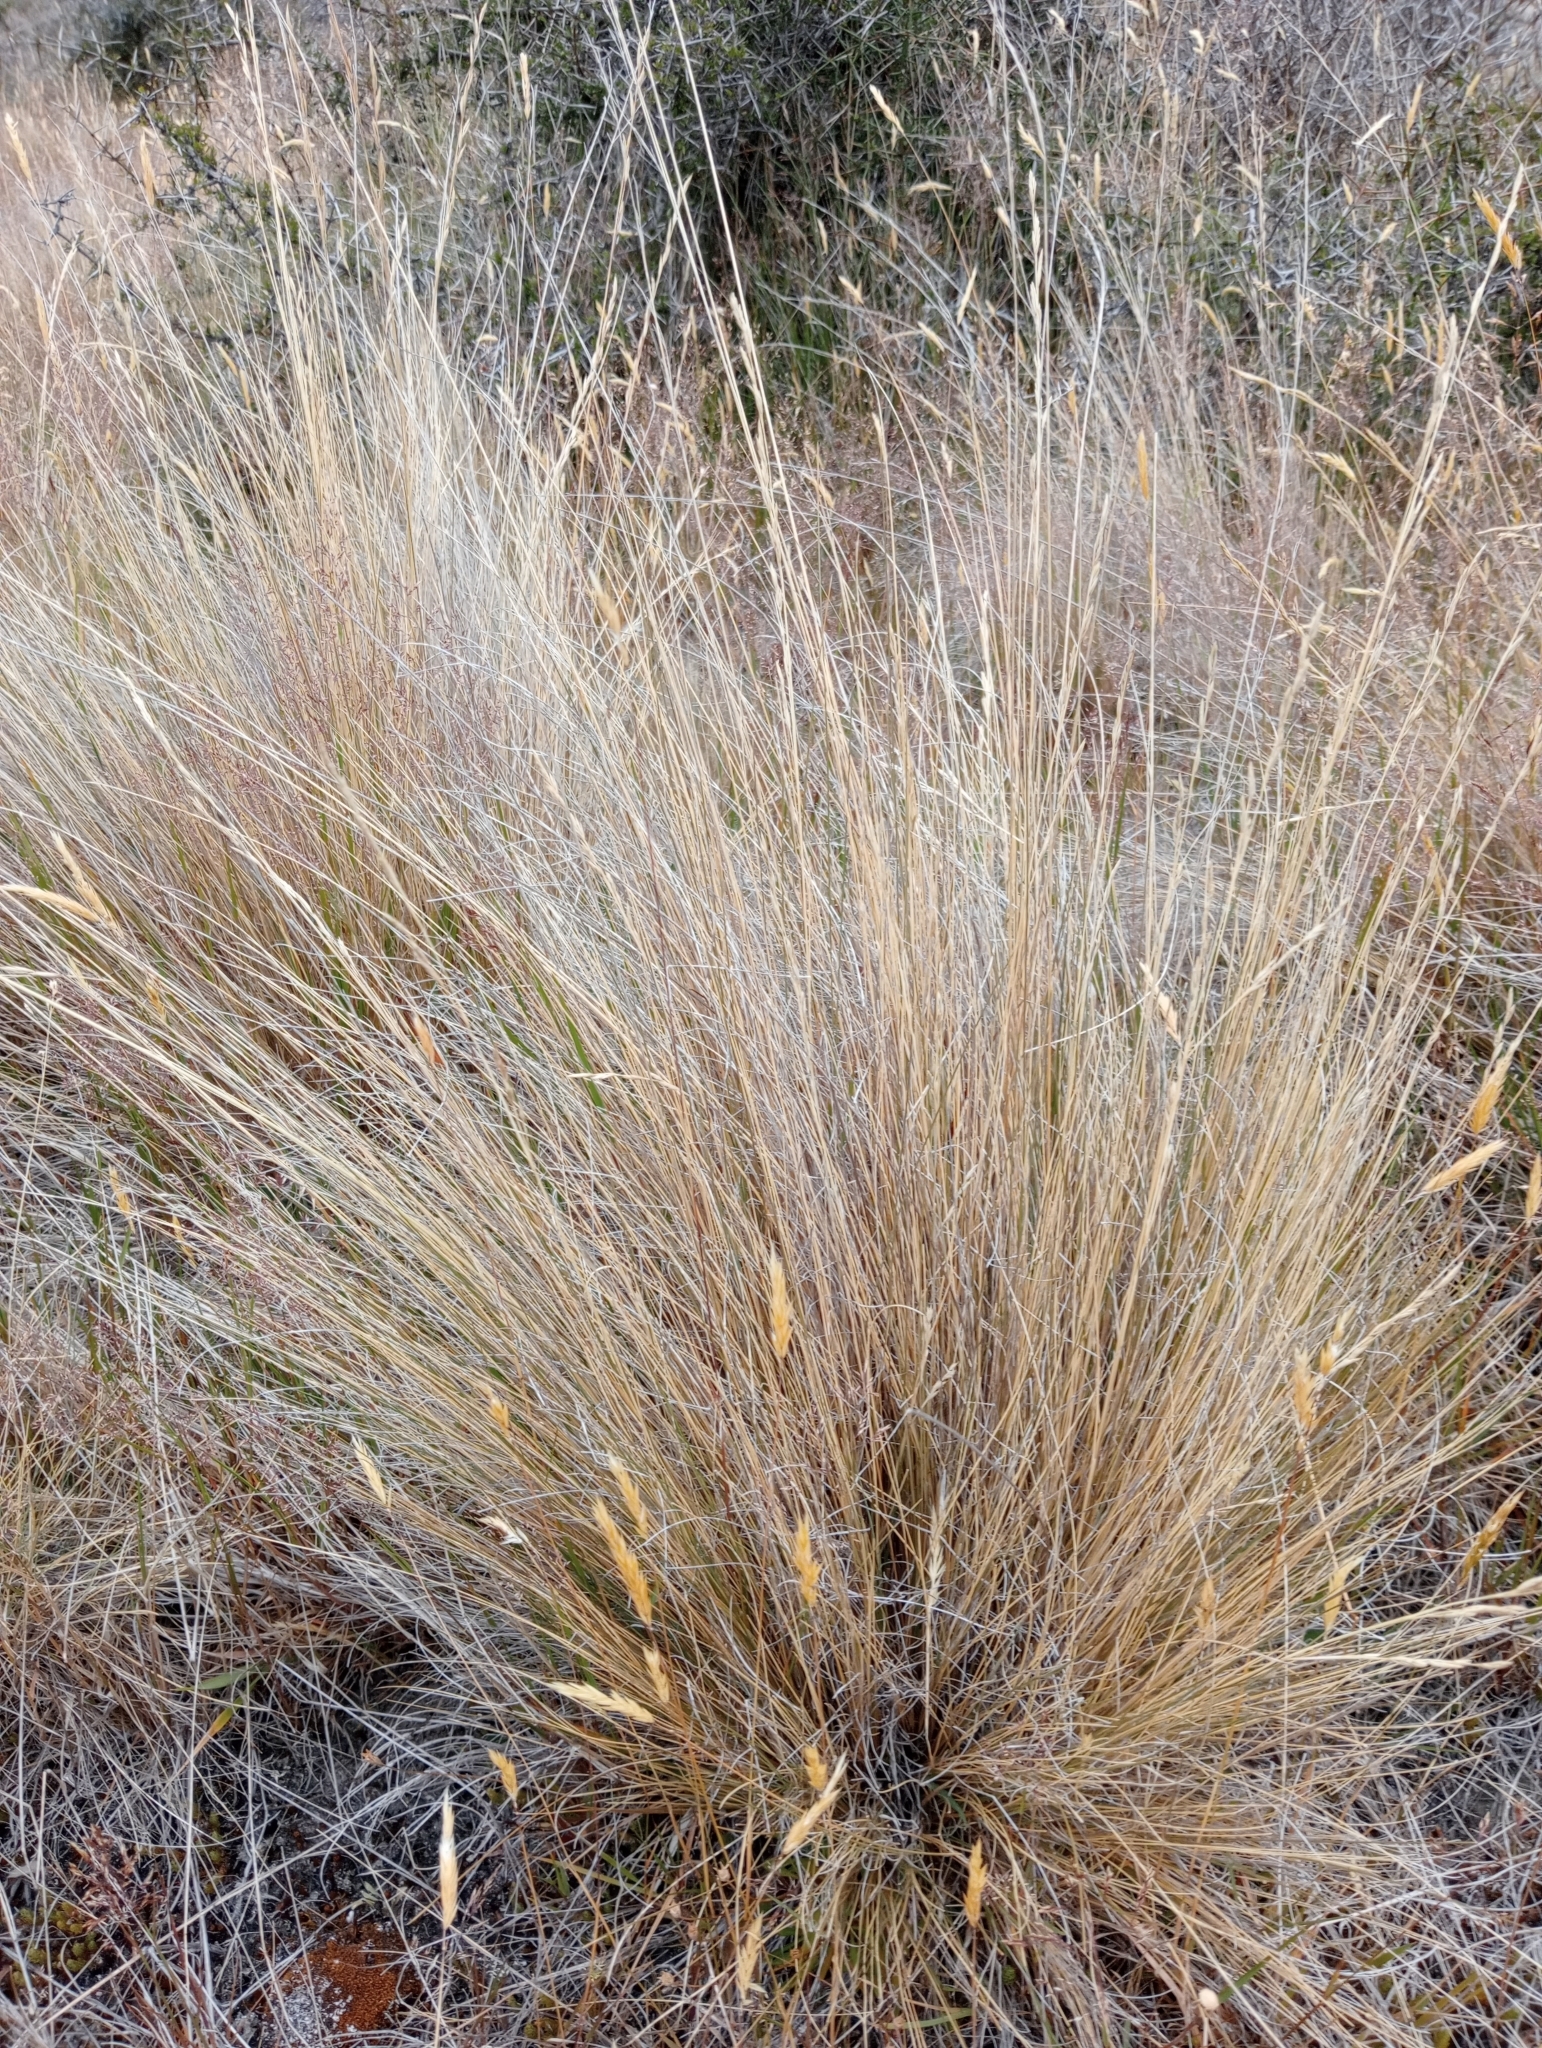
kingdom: Plantae
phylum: Tracheophyta
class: Liliopsida
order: Poales
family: Poaceae
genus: Festuca
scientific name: Festuca novae-zelandiae
